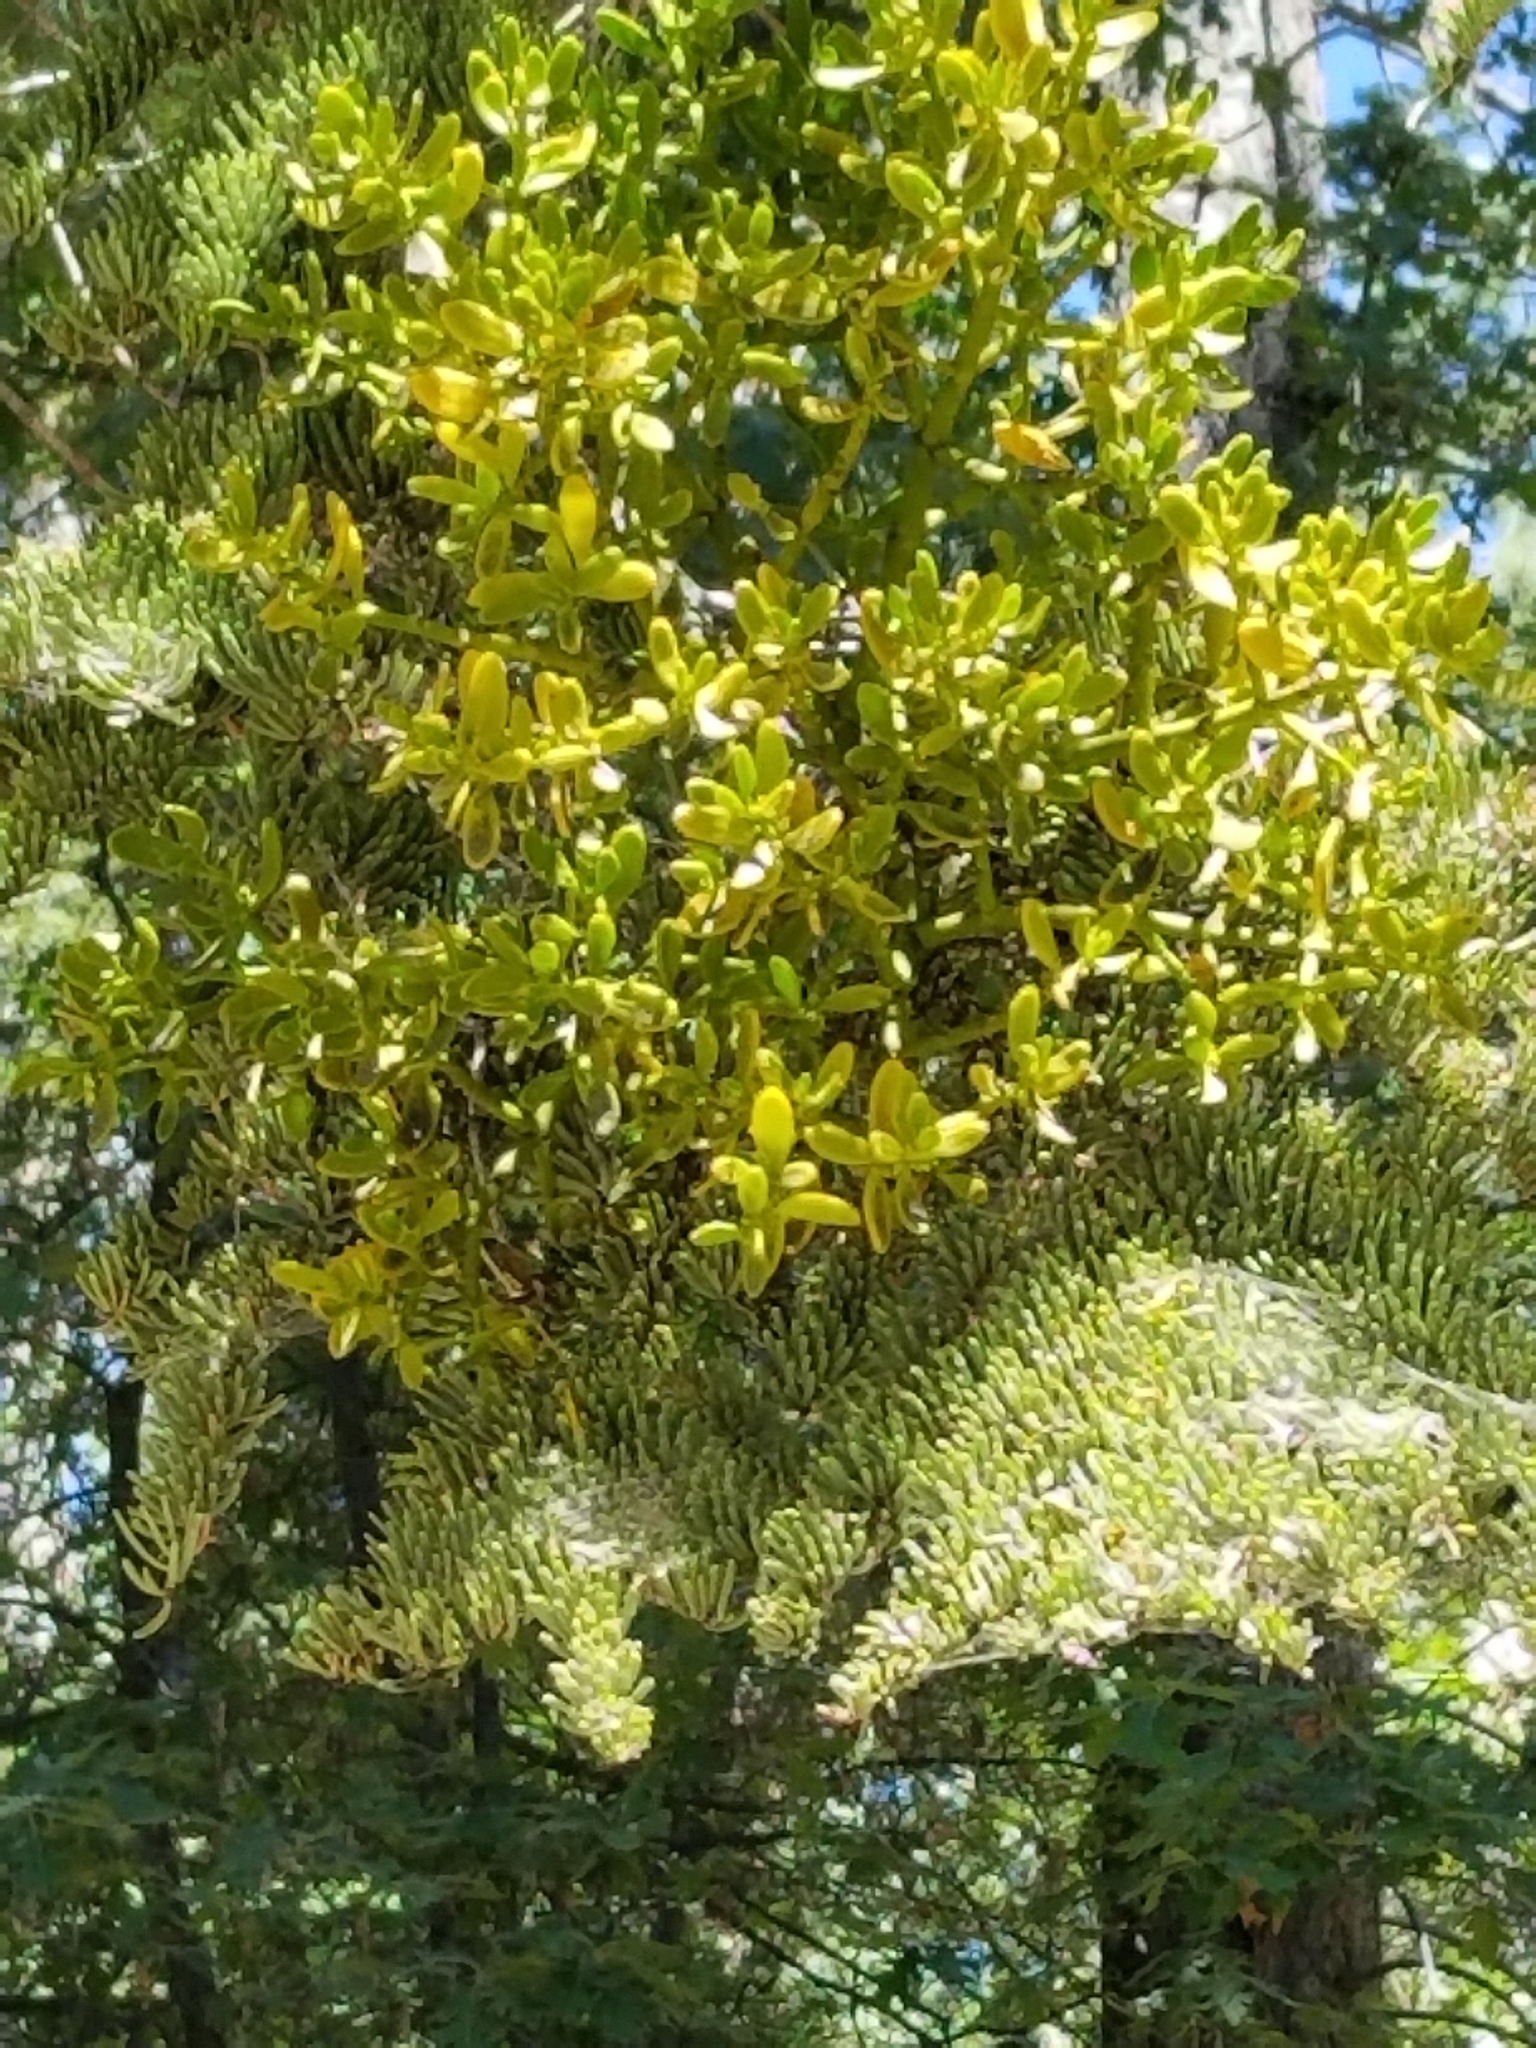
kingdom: Plantae
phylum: Tracheophyta
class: Magnoliopsida
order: Santalales
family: Viscaceae
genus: Phoradendron
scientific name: Phoradendron bolleanum
